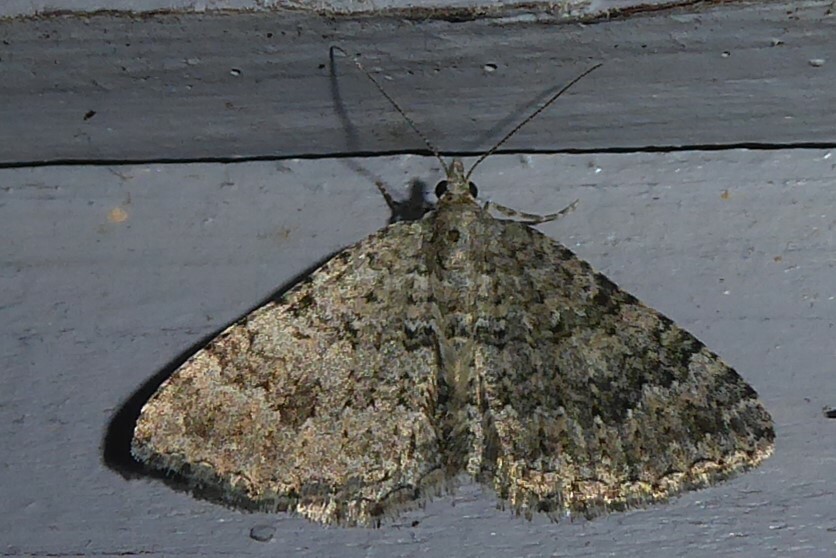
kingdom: Animalia
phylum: Arthropoda
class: Insecta
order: Lepidoptera
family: Geometridae
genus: Helastia
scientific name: Helastia corcularia
